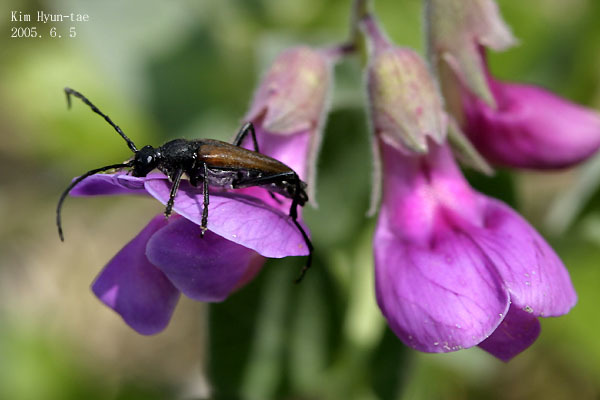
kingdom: Animalia
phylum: Arthropoda
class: Insecta
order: Coleoptera
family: Cerambycidae
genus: Leptura
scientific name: Leptura aethiops
